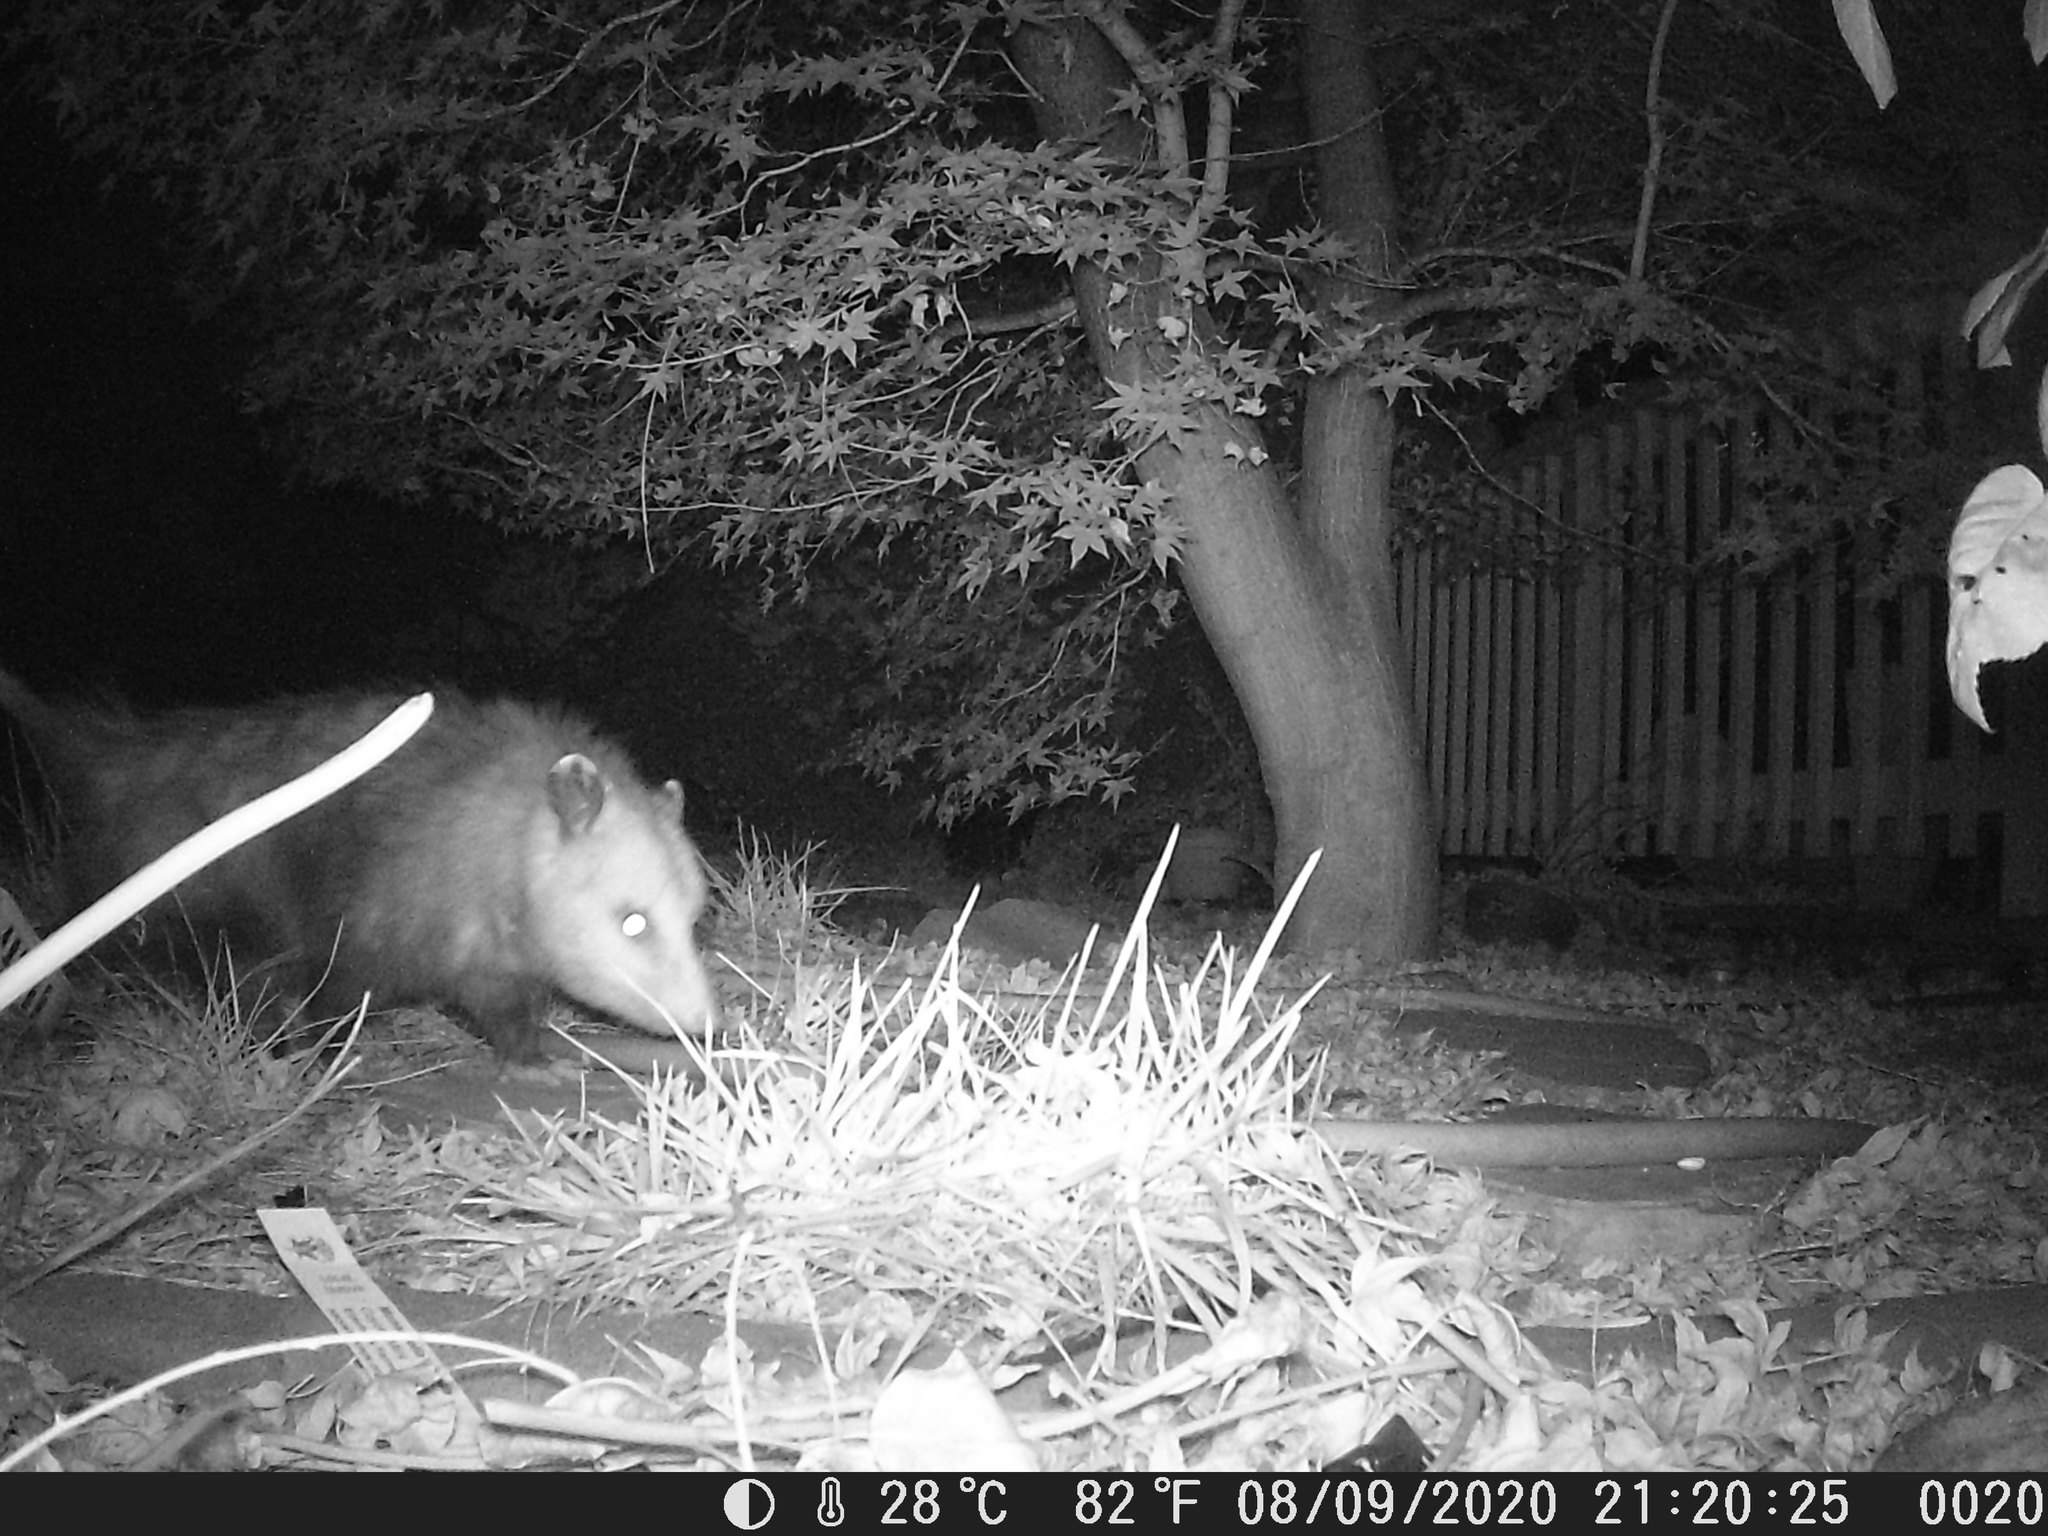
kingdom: Animalia
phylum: Chordata
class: Mammalia
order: Didelphimorphia
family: Didelphidae
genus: Didelphis
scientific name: Didelphis virginiana
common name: Virginia opossum
